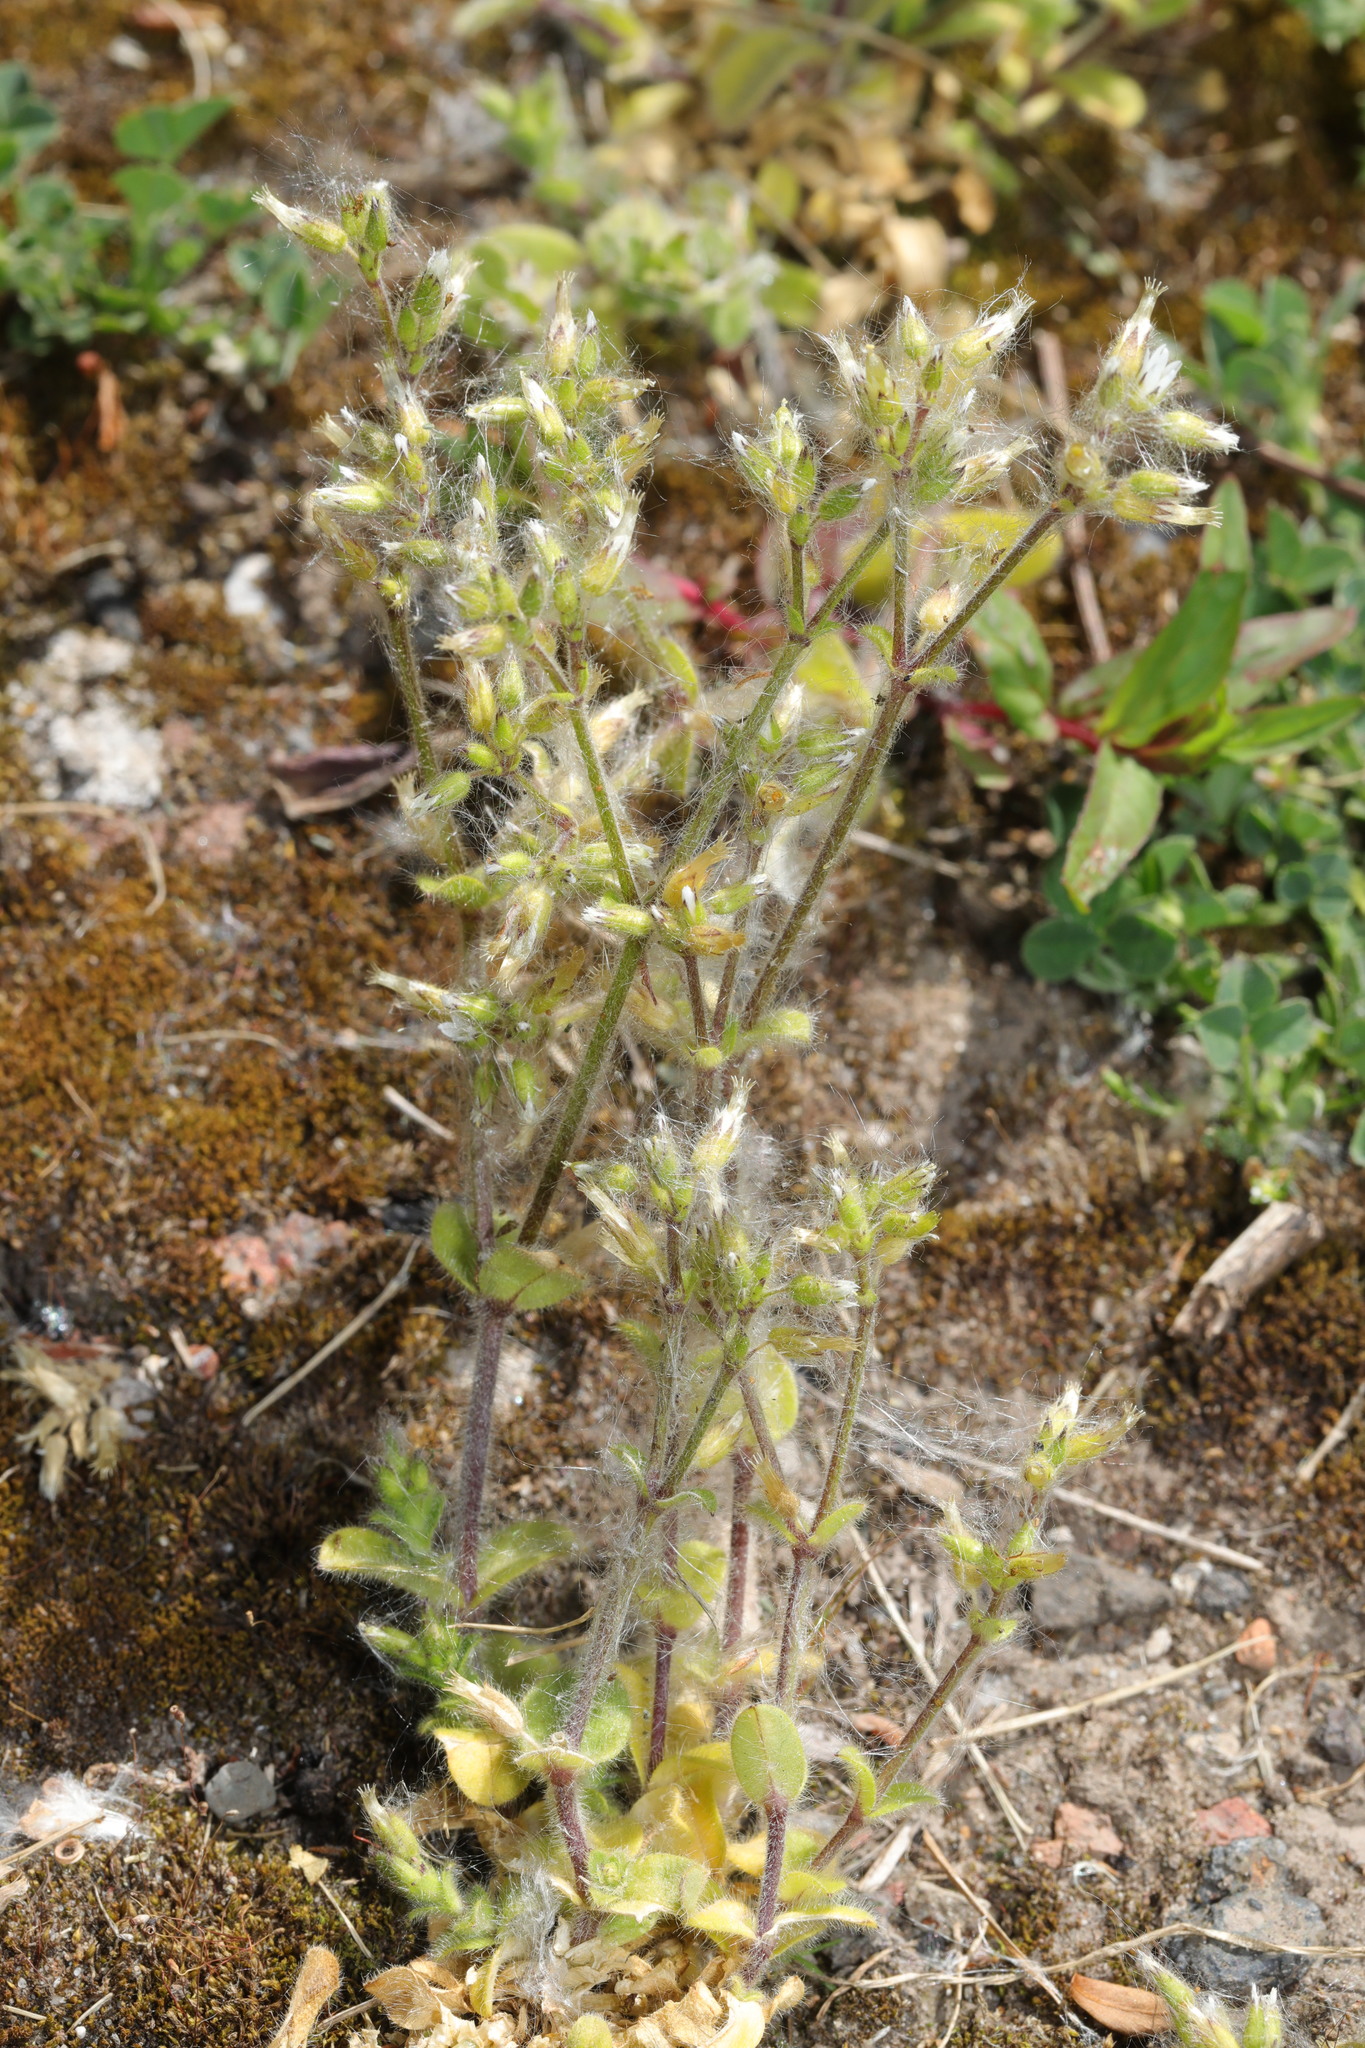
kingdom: Plantae
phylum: Tracheophyta
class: Magnoliopsida
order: Caryophyllales
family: Caryophyllaceae
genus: Cerastium
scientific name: Cerastium glomeratum
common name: Sticky chickweed
